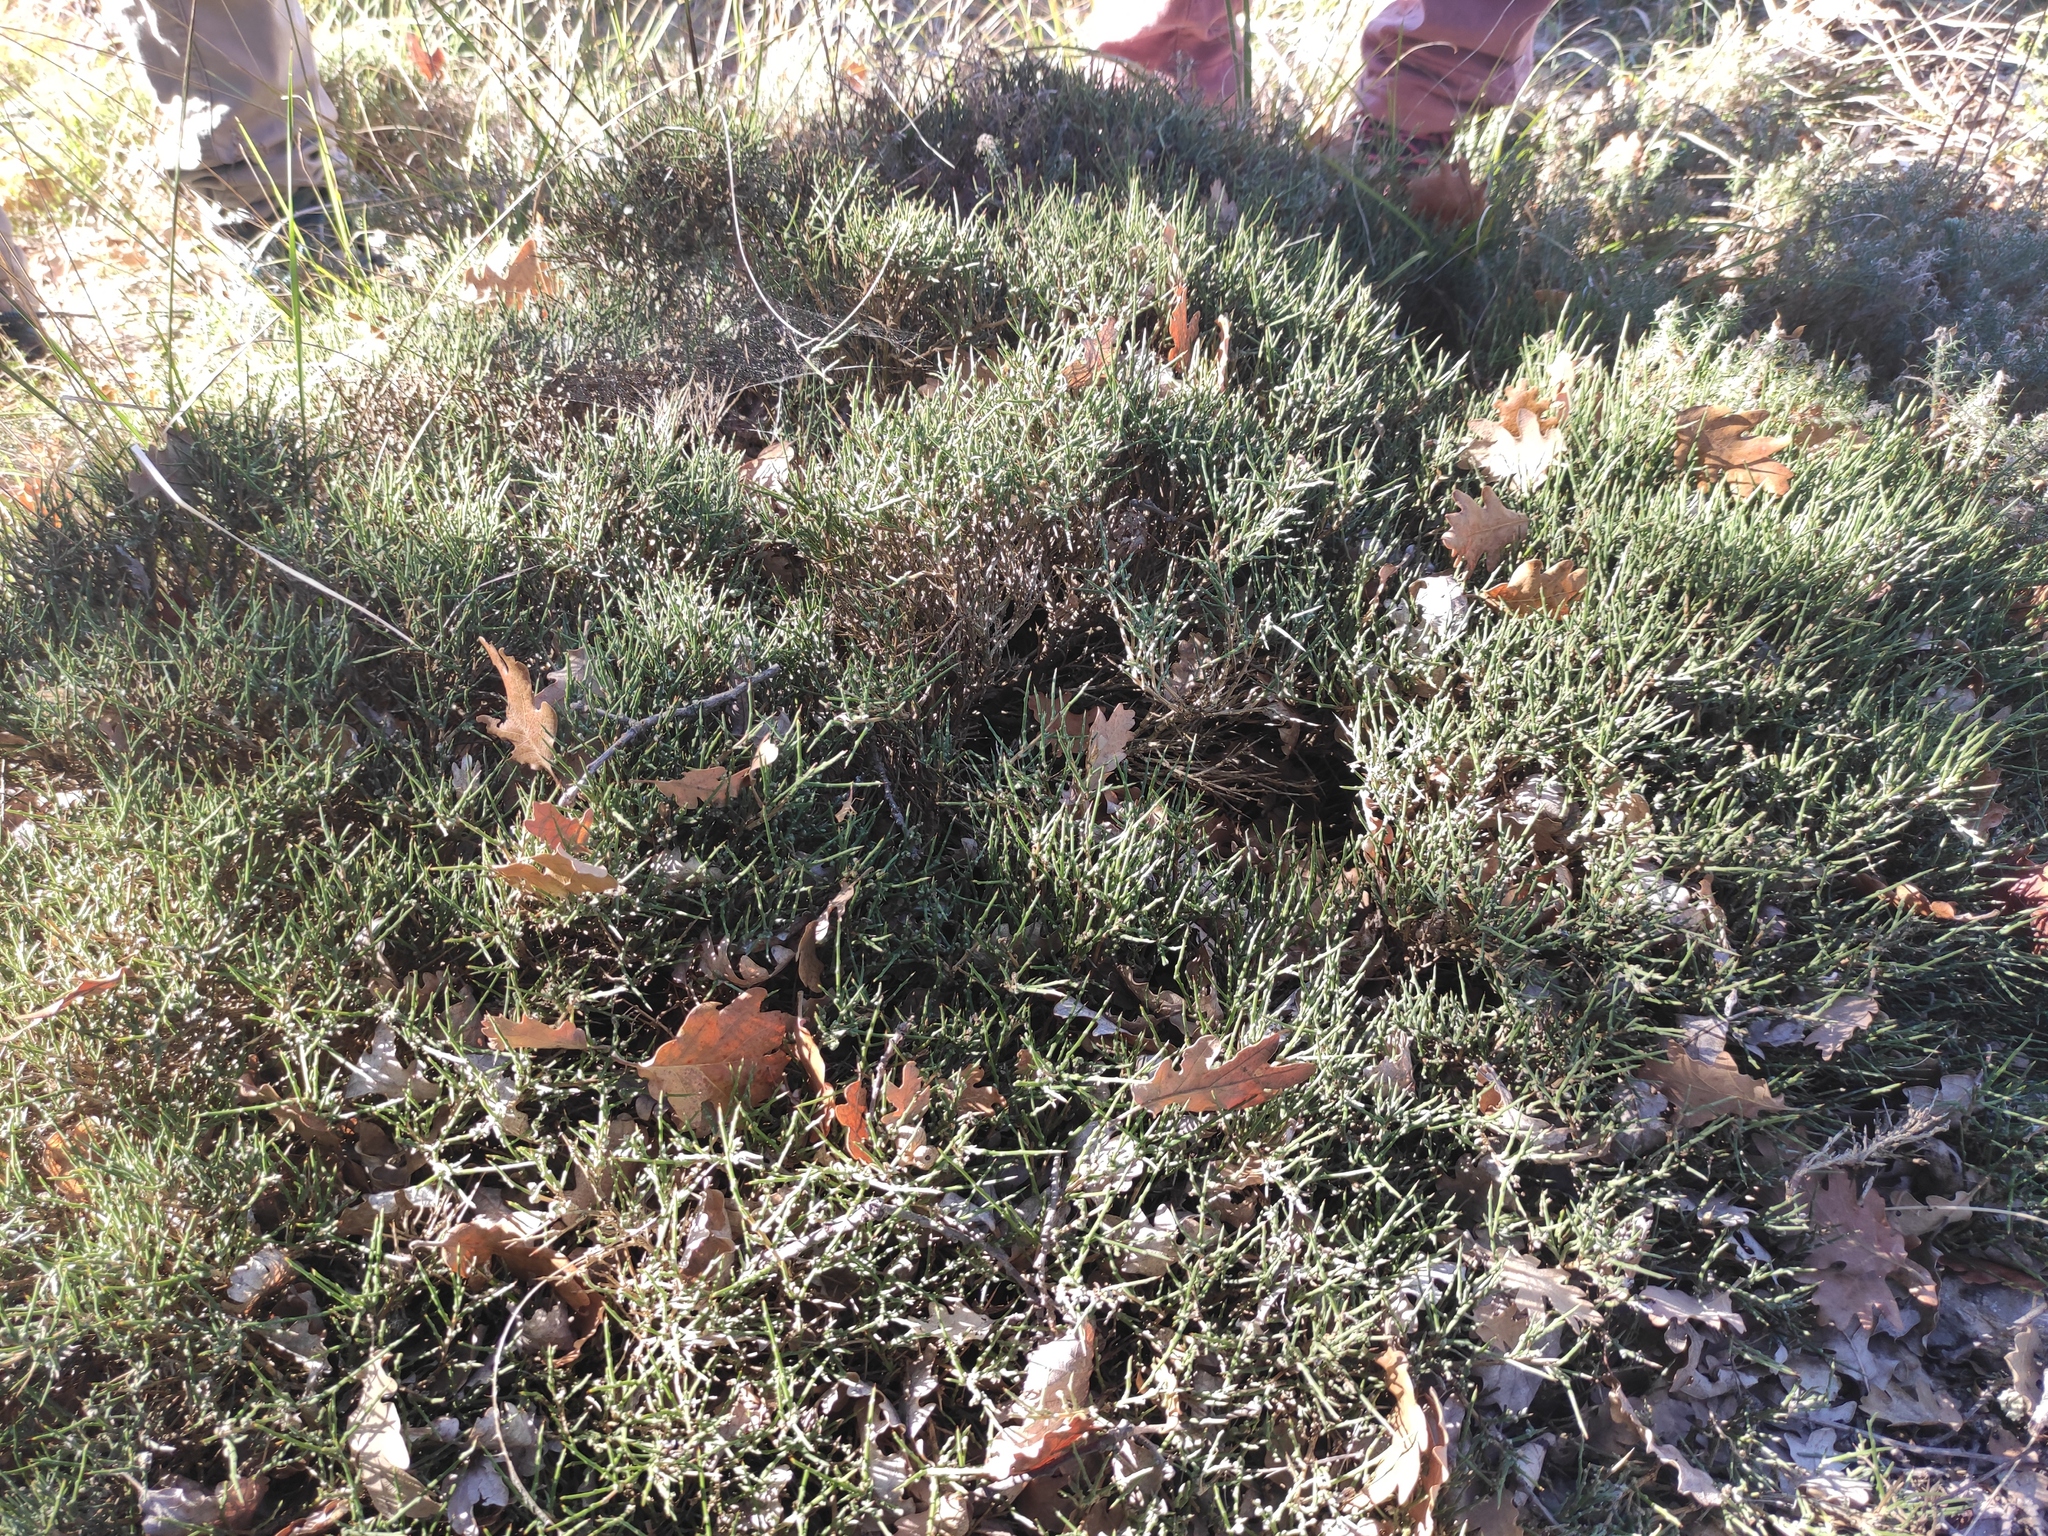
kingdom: Plantae
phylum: Tracheophyta
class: Magnoliopsida
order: Fabales
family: Fabaceae
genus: Genista
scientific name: Genista lobelii
